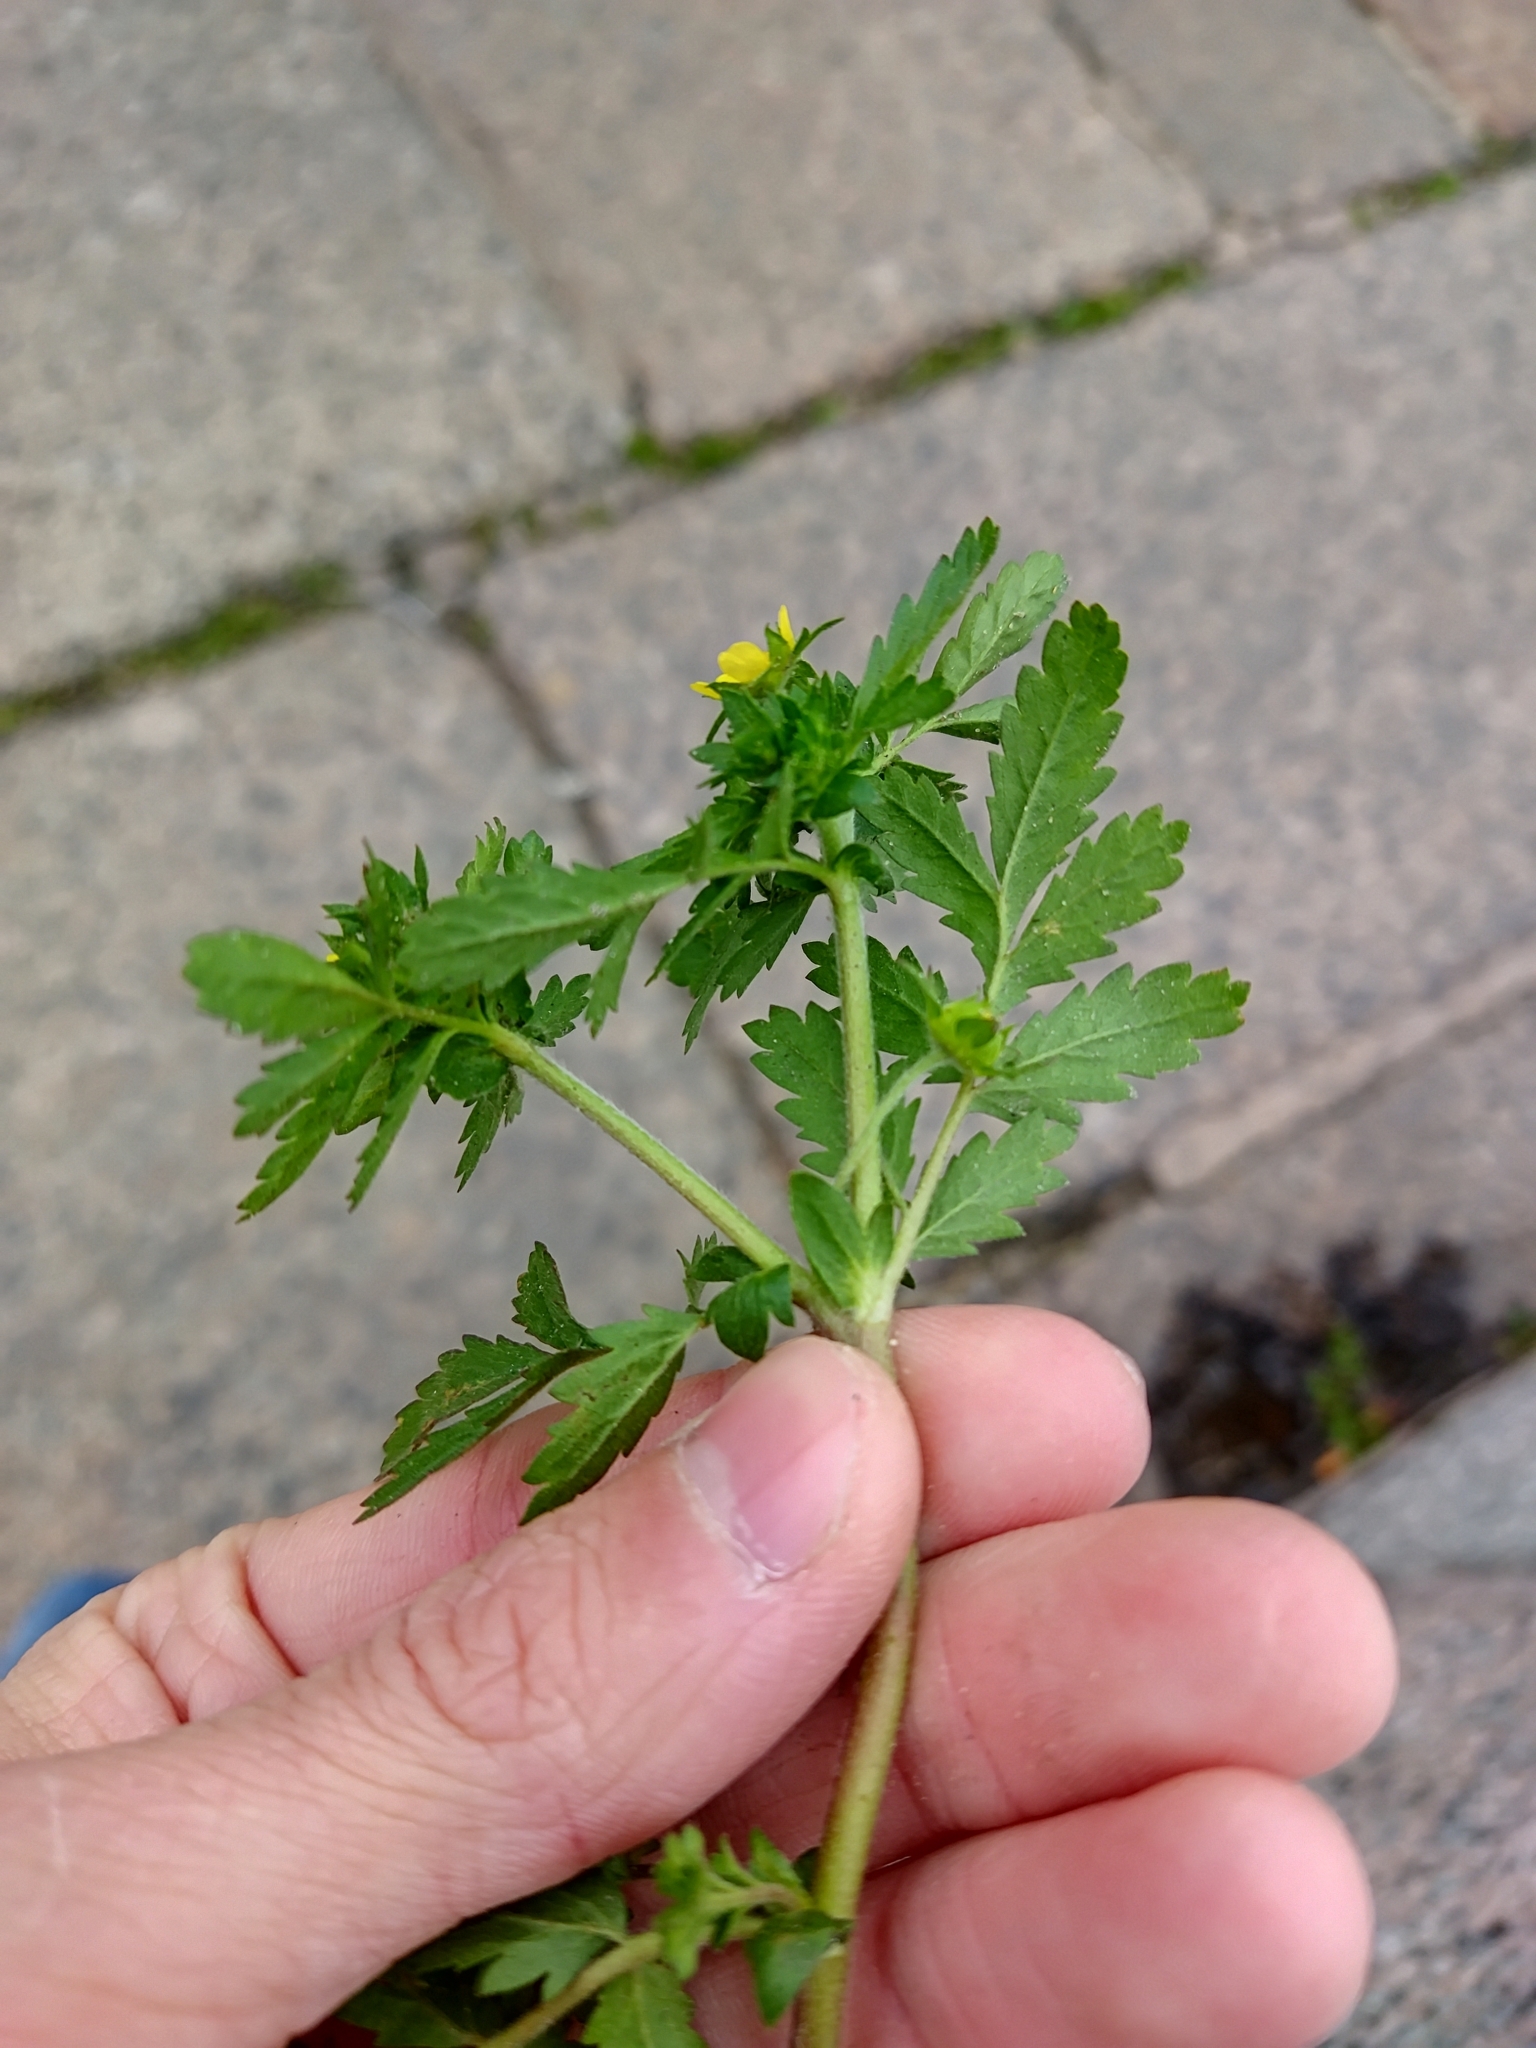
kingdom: Plantae
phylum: Tracheophyta
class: Magnoliopsida
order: Rosales
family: Rosaceae
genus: Potentilla
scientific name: Potentilla norvegica
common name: Ternate-leaved cinquefoil
